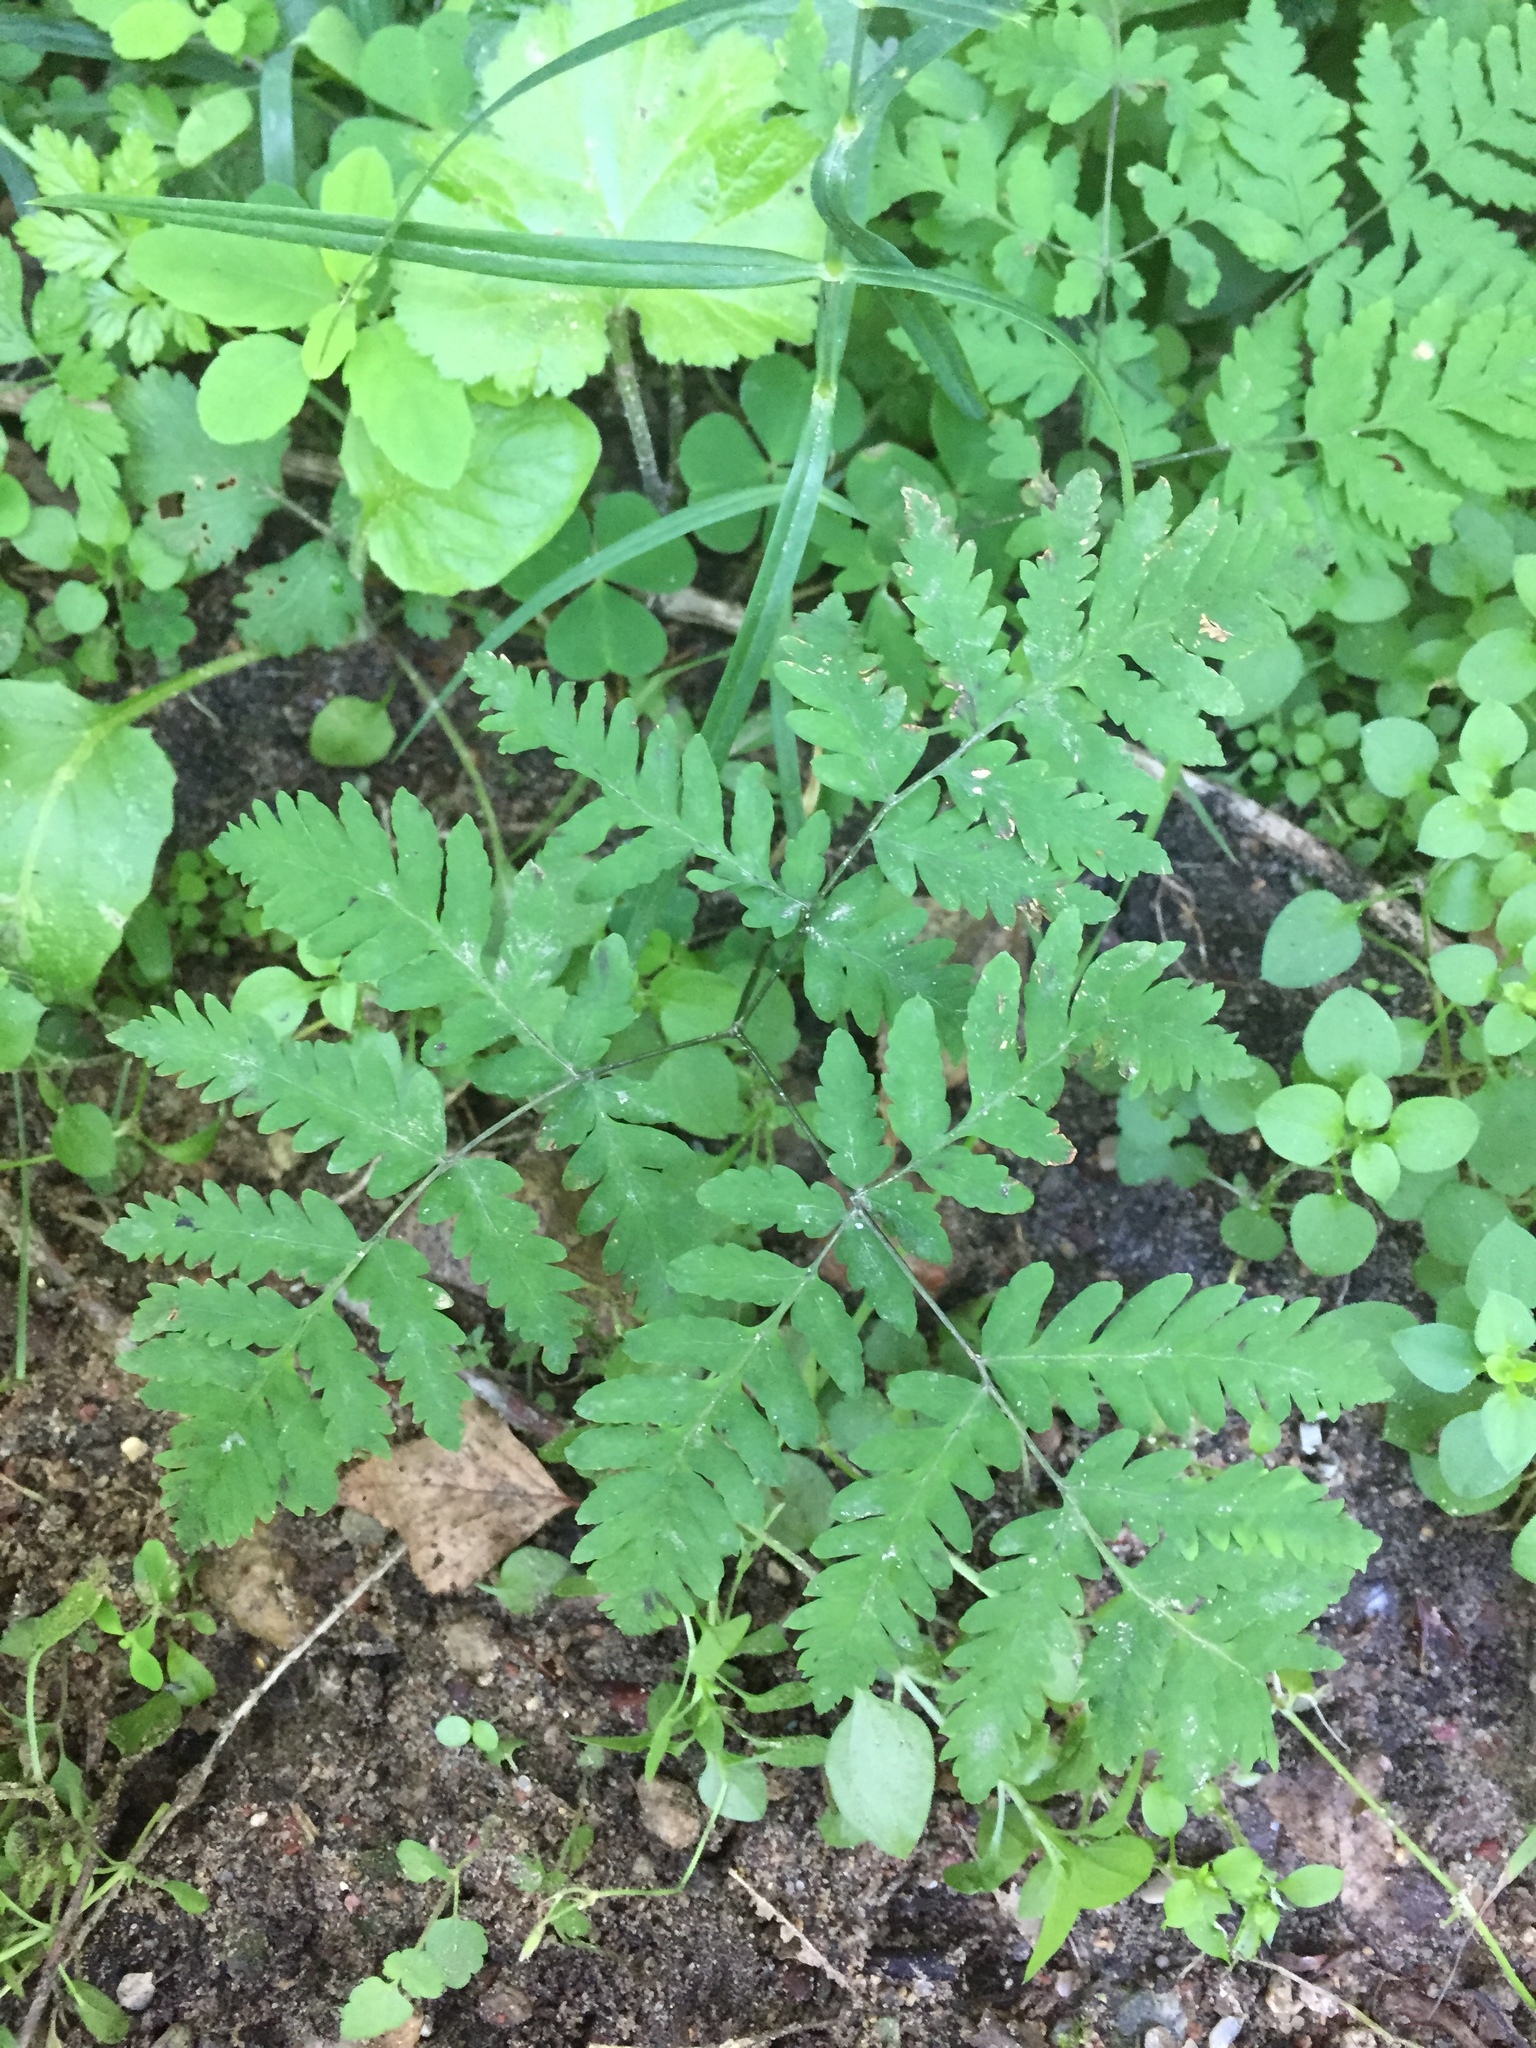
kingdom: Plantae
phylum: Tracheophyta
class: Polypodiopsida
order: Polypodiales
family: Cystopteridaceae
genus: Gymnocarpium
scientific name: Gymnocarpium dryopteris
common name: Oak fern
